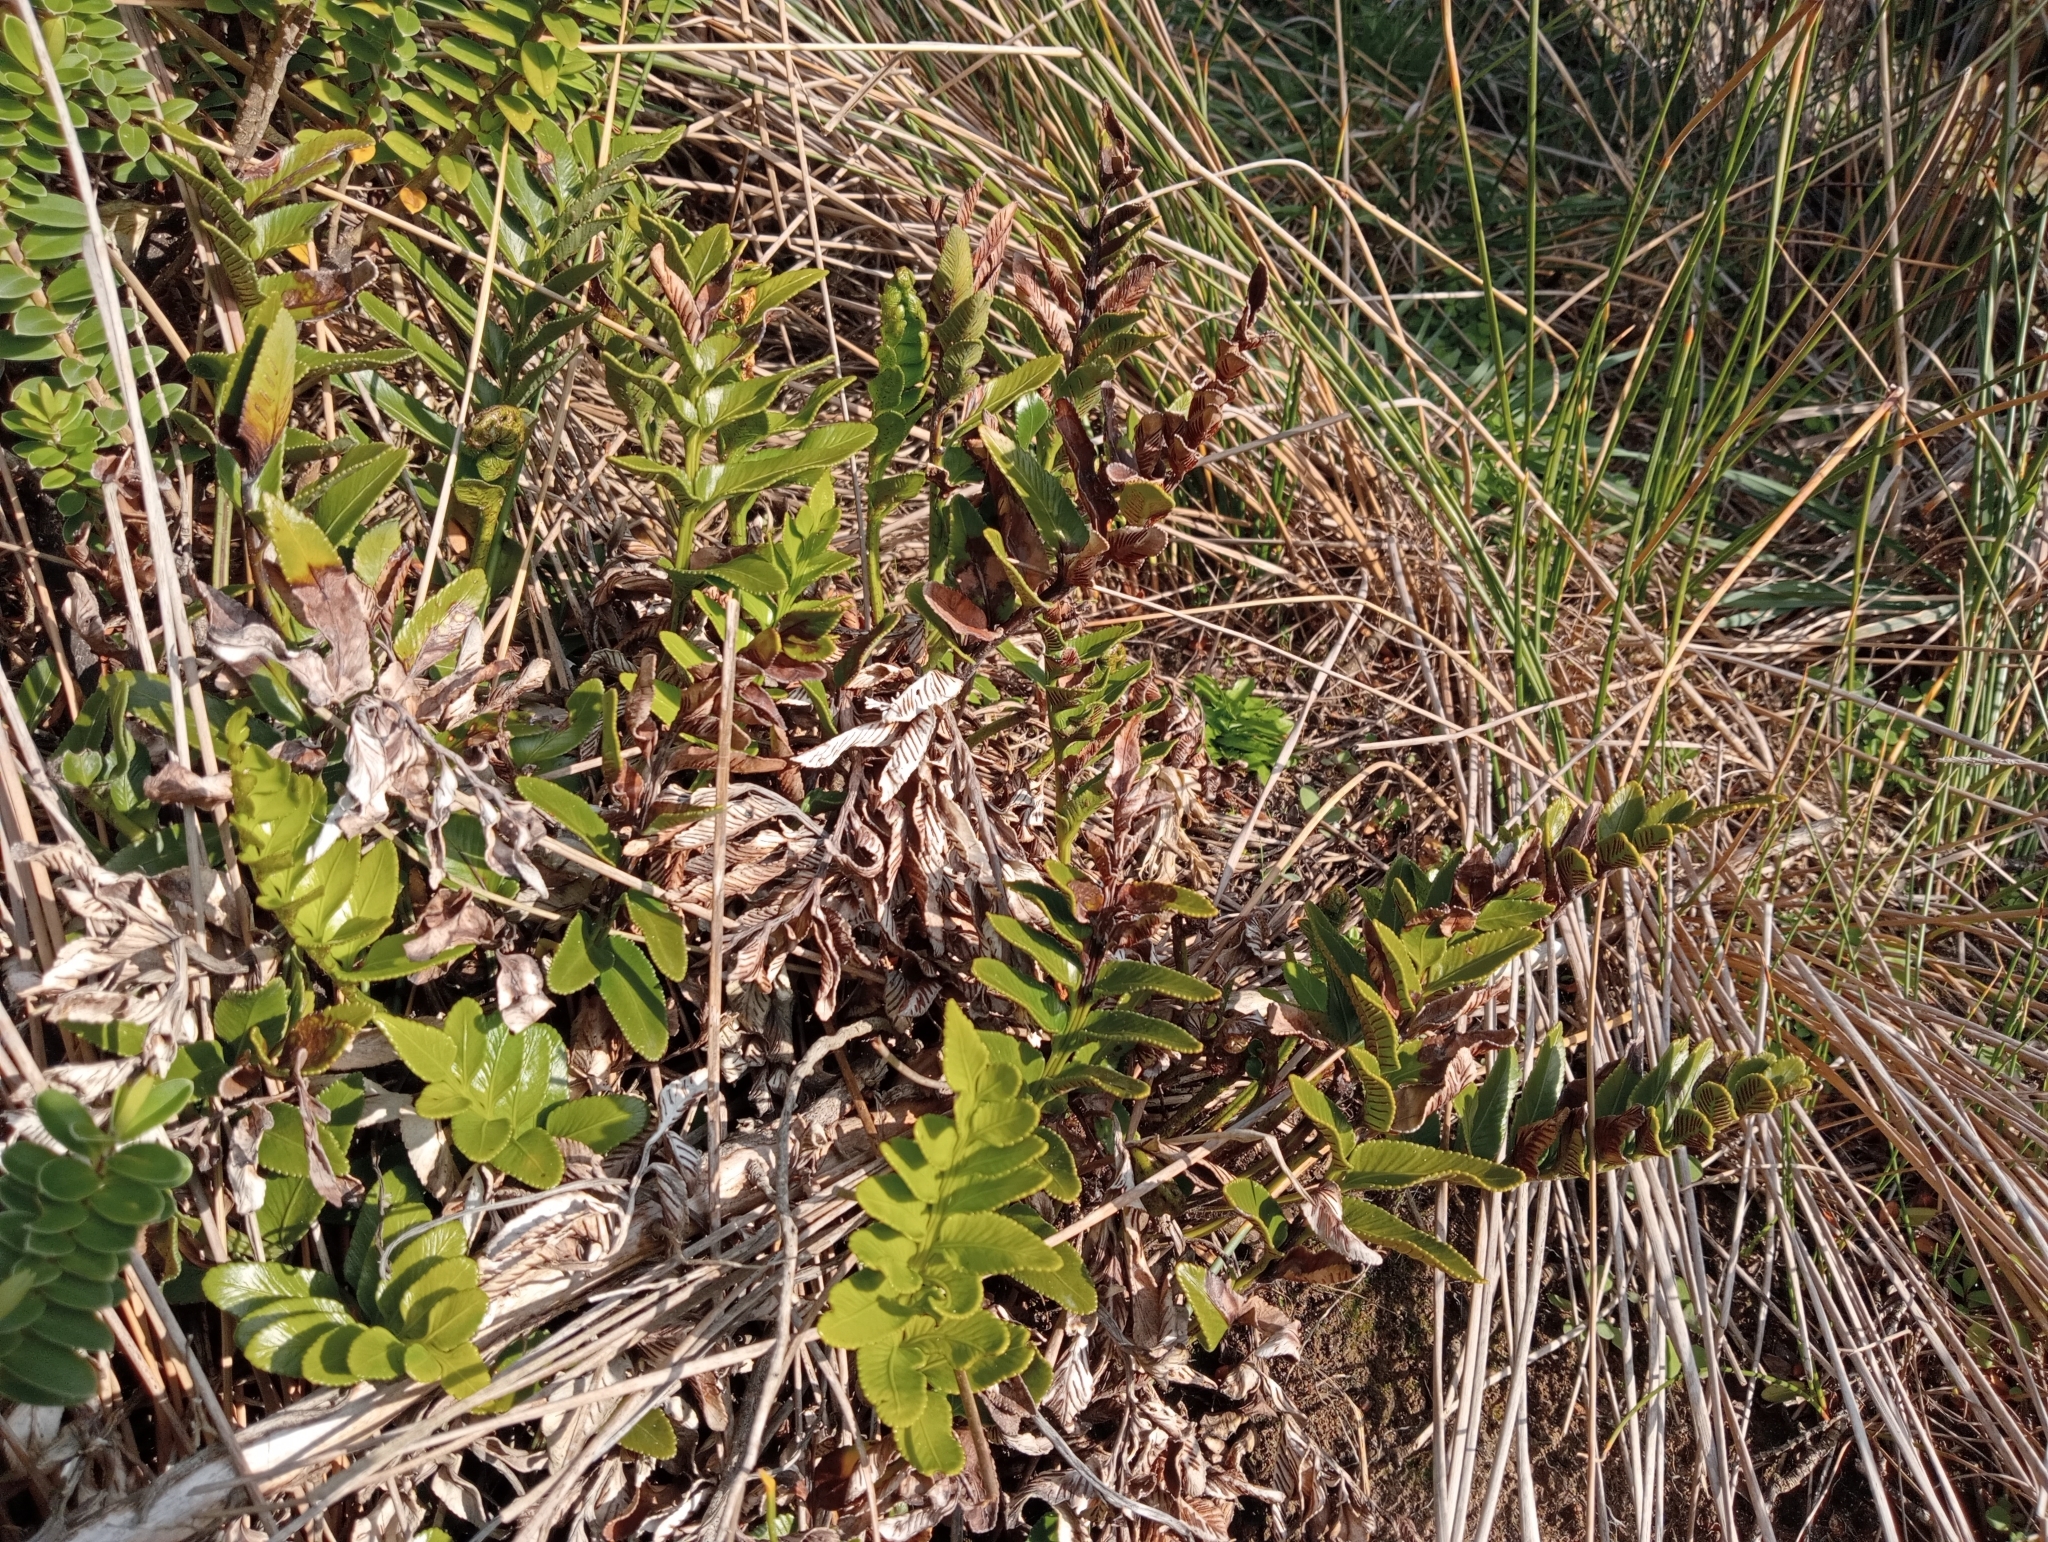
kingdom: Plantae
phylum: Tracheophyta
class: Polypodiopsida
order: Polypodiales
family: Aspleniaceae
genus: Asplenium
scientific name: Asplenium obtusatum
